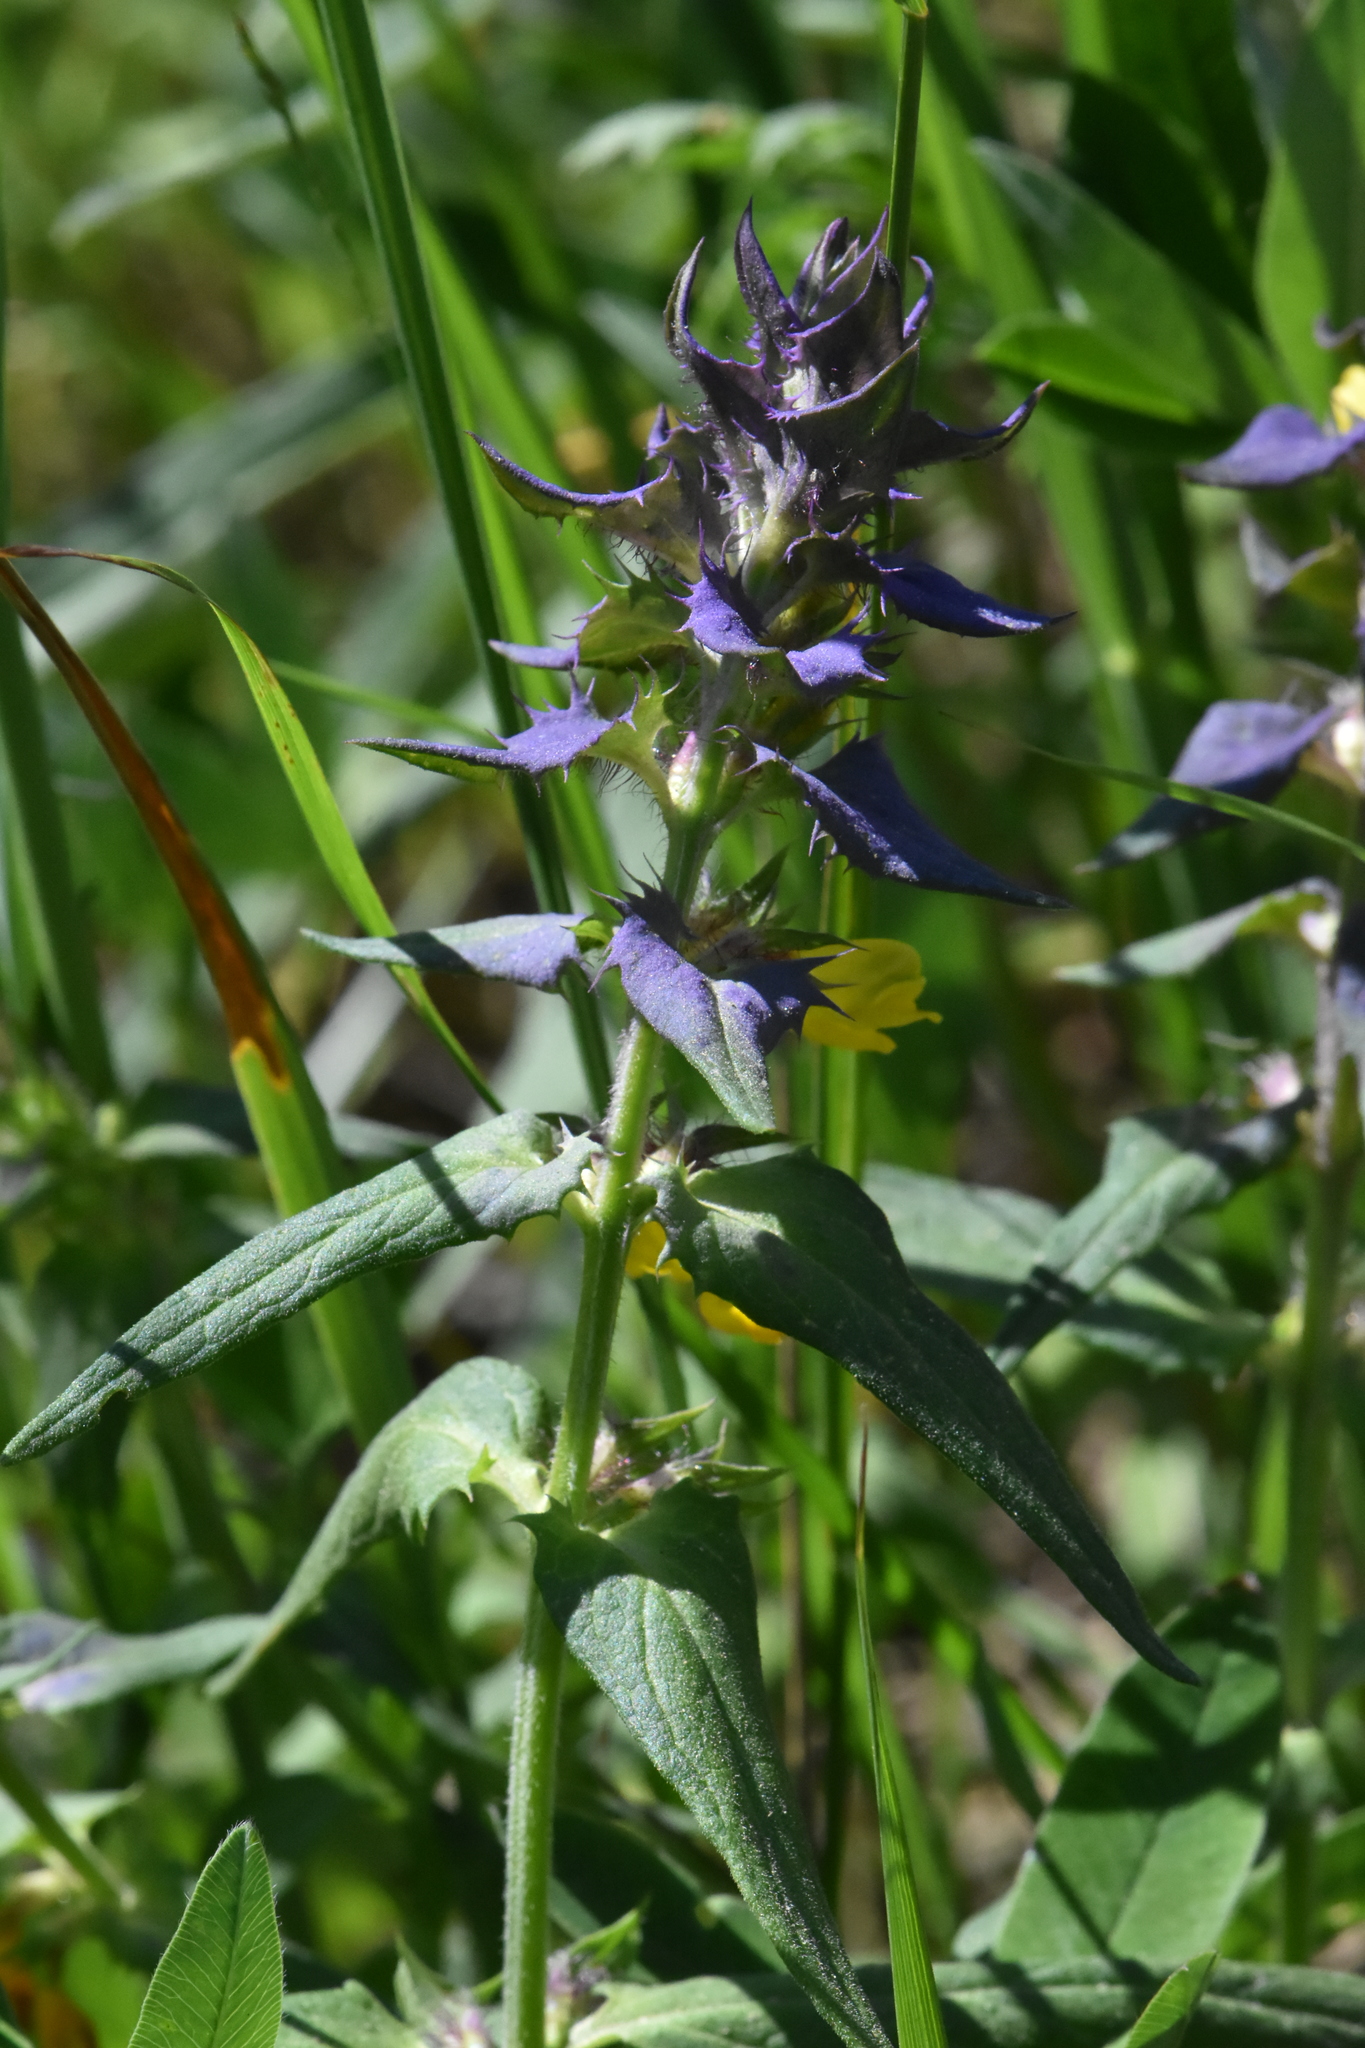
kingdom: Plantae
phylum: Tracheophyta
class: Magnoliopsida
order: Lamiales
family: Orobanchaceae
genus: Melampyrum
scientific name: Melampyrum nemorosum
